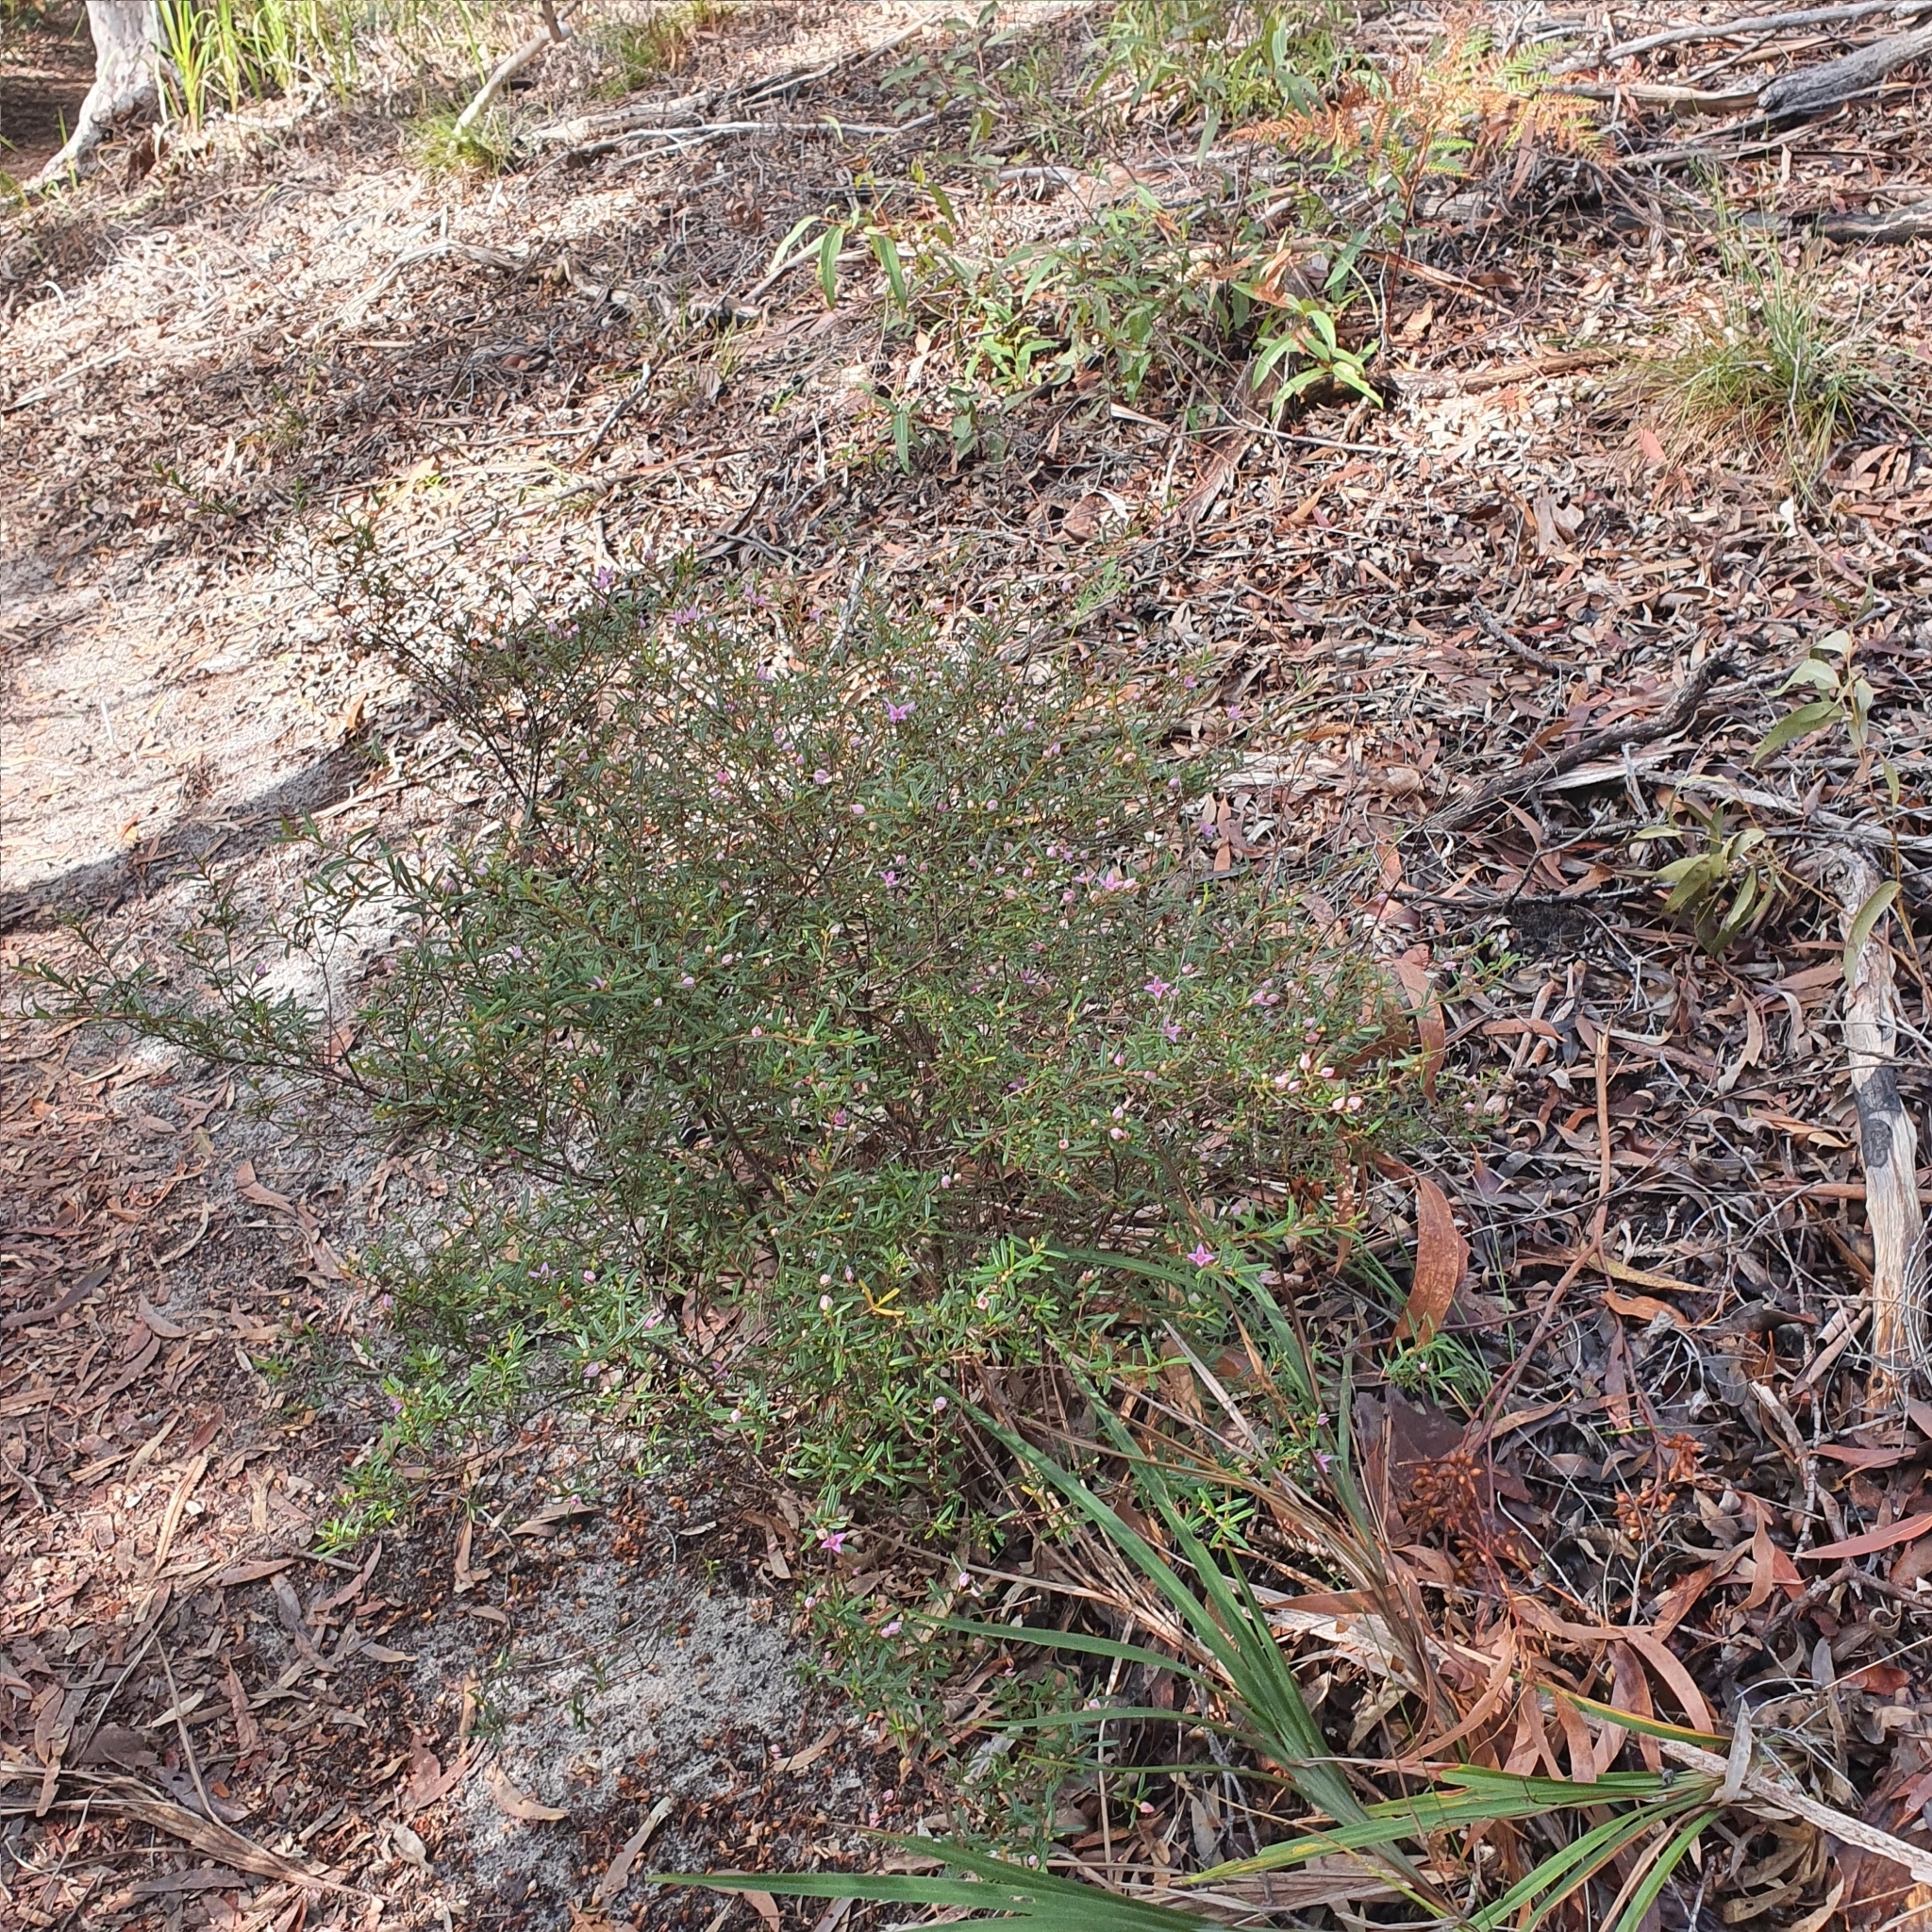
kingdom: Plantae
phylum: Tracheophyta
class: Magnoliopsida
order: Sapindales
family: Rutaceae
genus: Boronia
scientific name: Boronia rosmarinifolia
